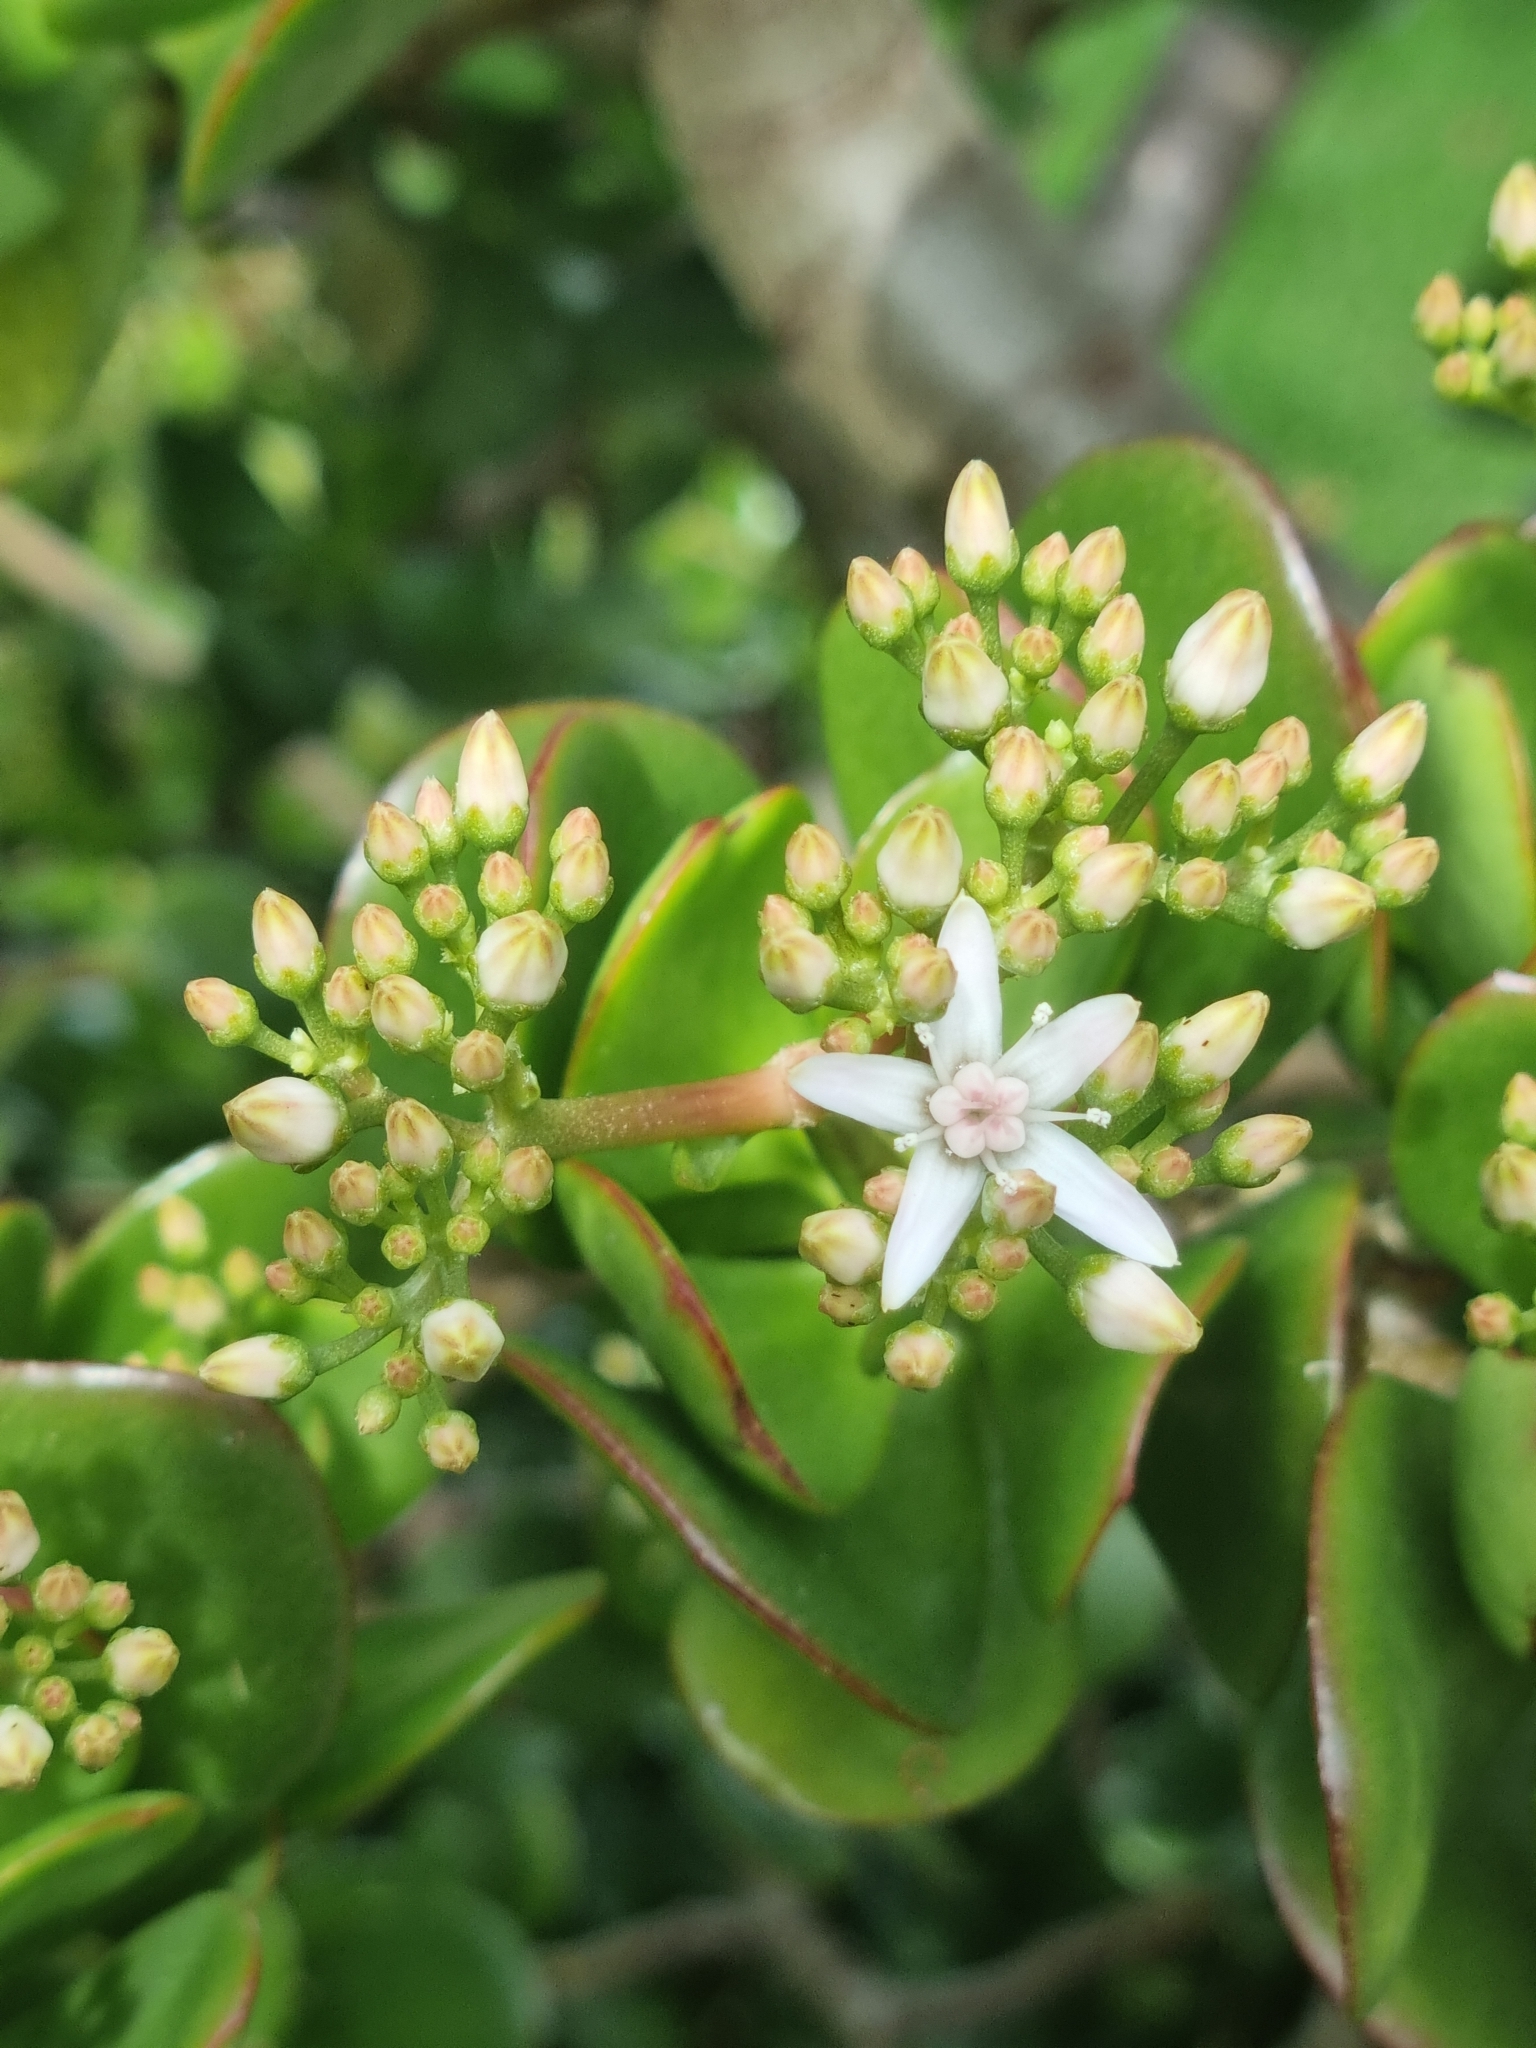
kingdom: Plantae
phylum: Tracheophyta
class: Magnoliopsida
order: Saxifragales
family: Crassulaceae
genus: Crassula
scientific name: Crassula ovata
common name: Jade plant
